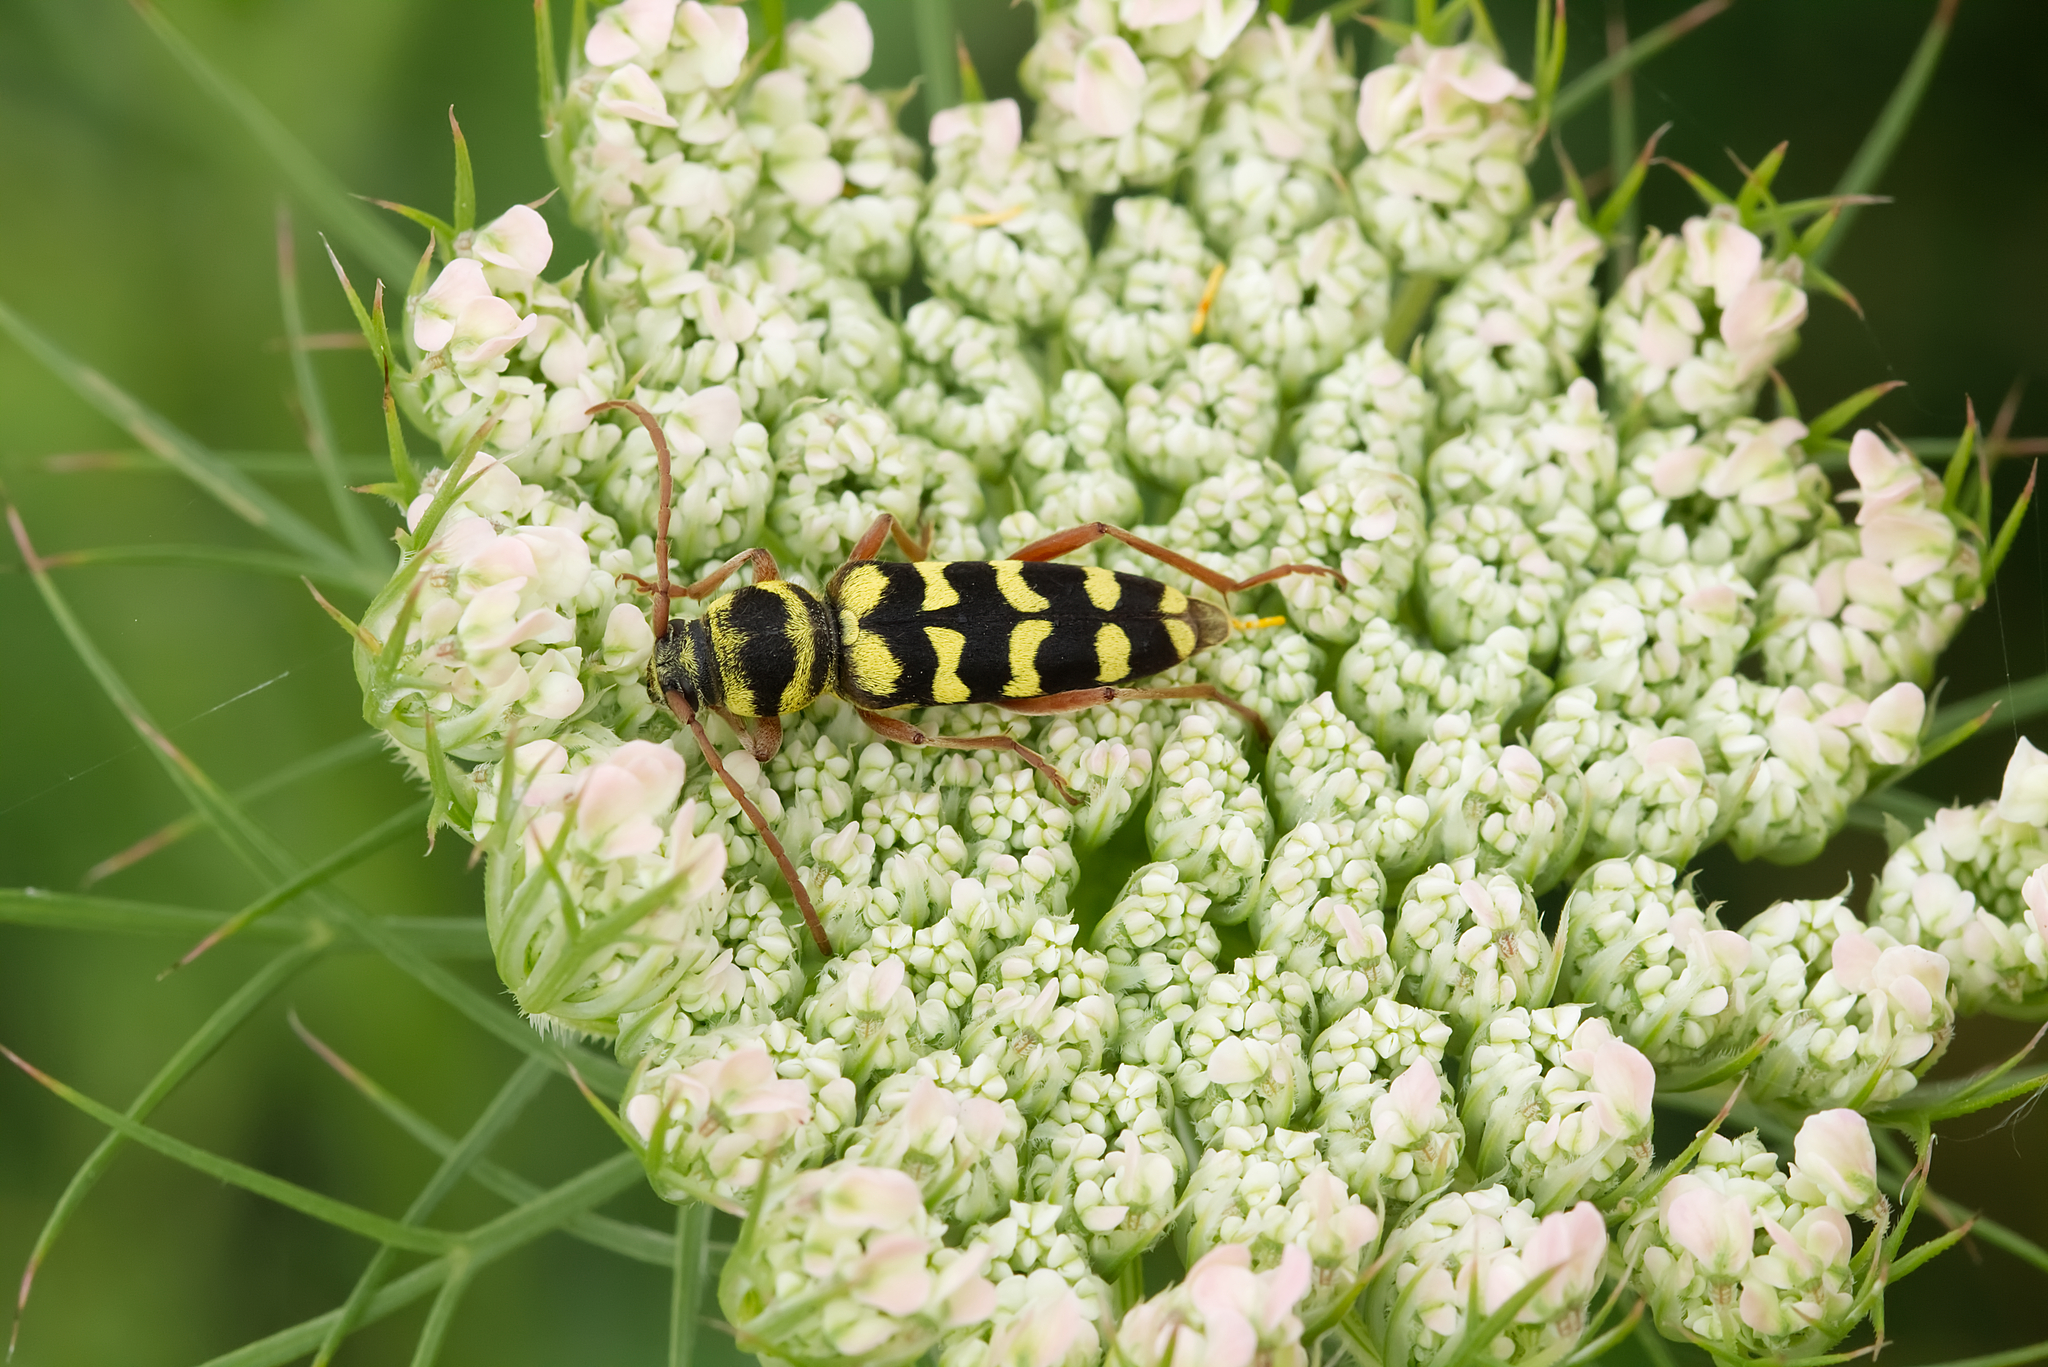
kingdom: Animalia
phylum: Arthropoda
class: Insecta
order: Coleoptera
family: Cerambycidae
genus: Plagionotus
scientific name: Plagionotus floralis
